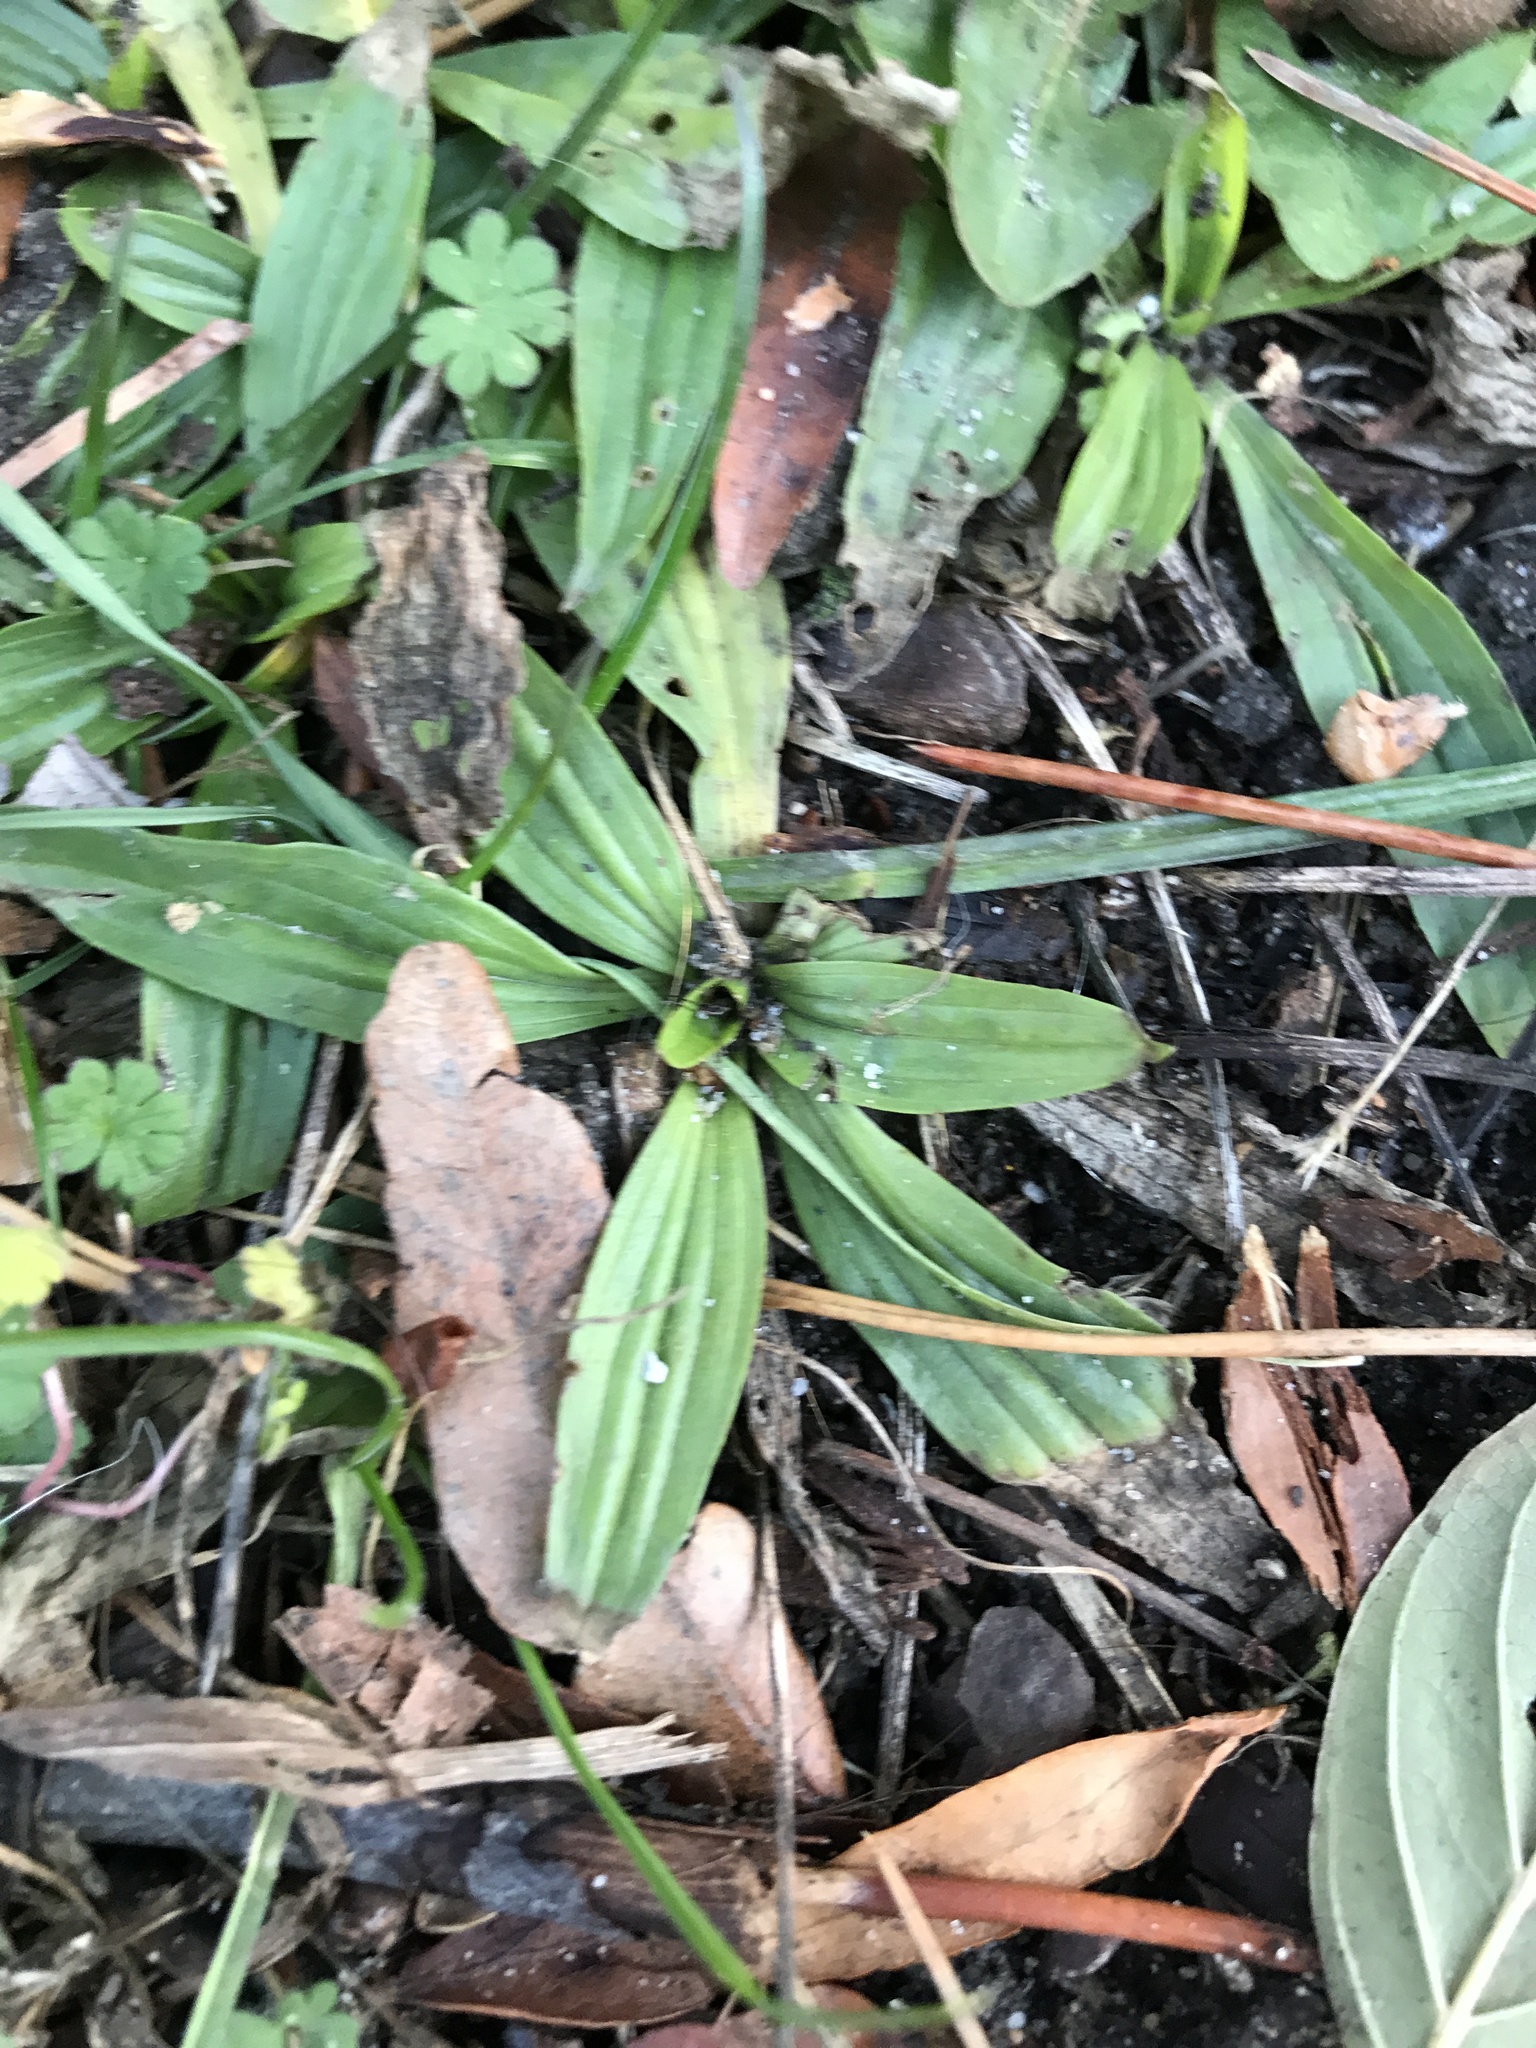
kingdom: Plantae
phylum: Tracheophyta
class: Magnoliopsida
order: Lamiales
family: Plantaginaceae
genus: Plantago
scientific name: Plantago lanceolata
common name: Ribwort plantain
